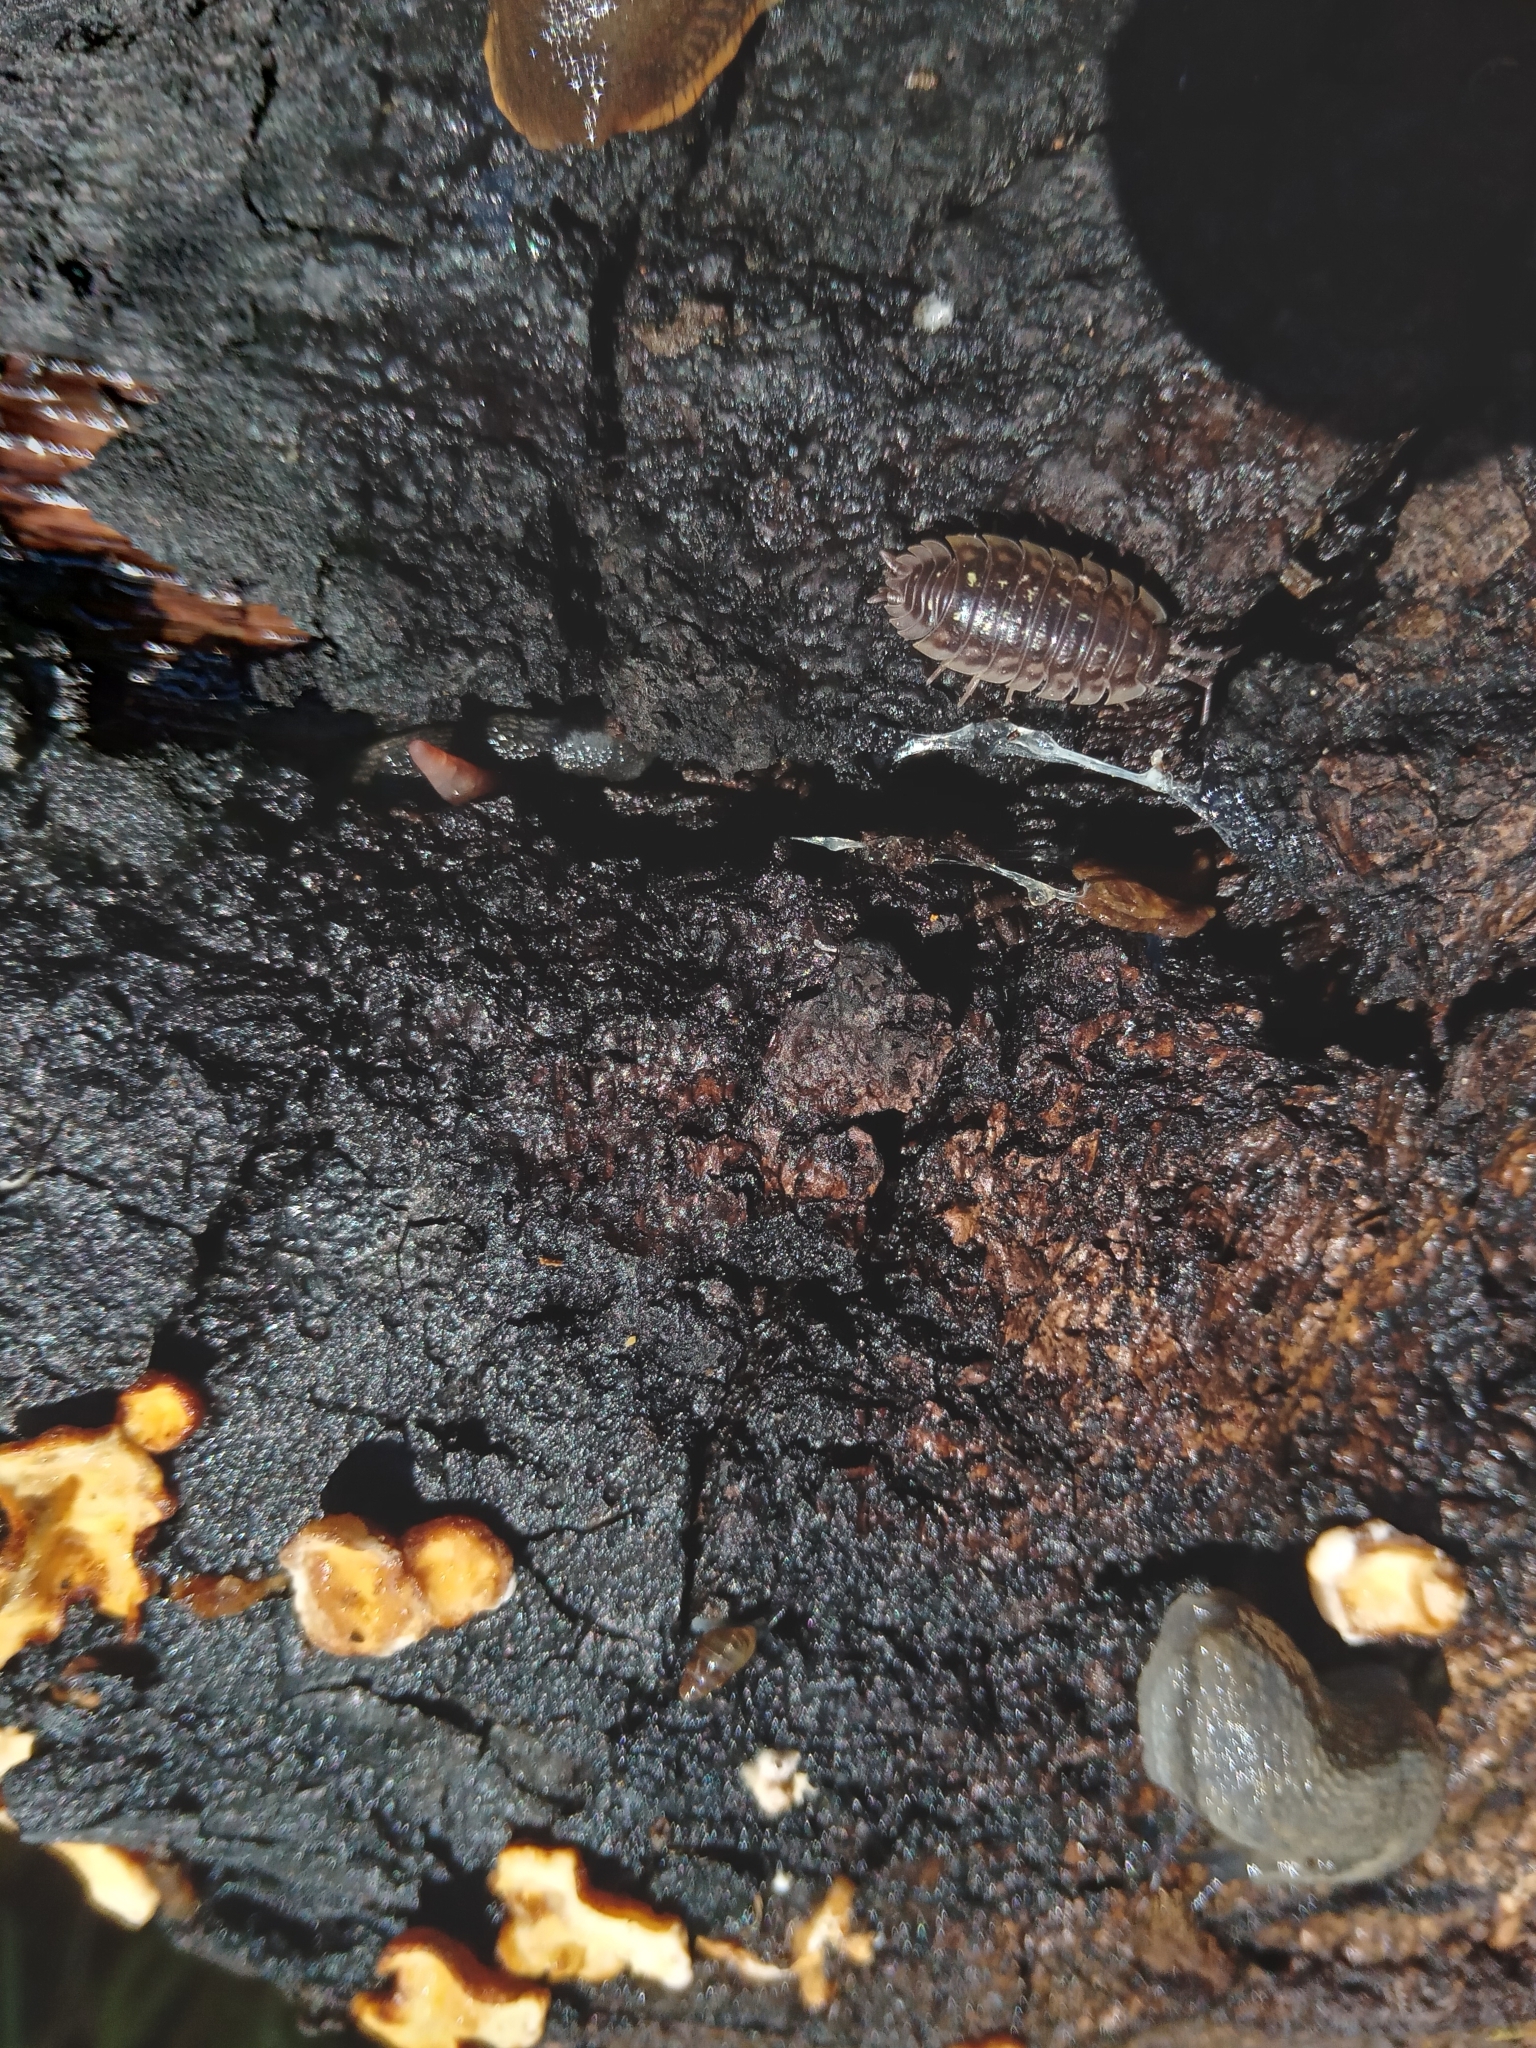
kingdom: Animalia
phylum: Arthropoda
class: Malacostraca
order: Isopoda
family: Oniscidae
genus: Oniscus
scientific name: Oniscus asellus
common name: Common shiny woodlouse
